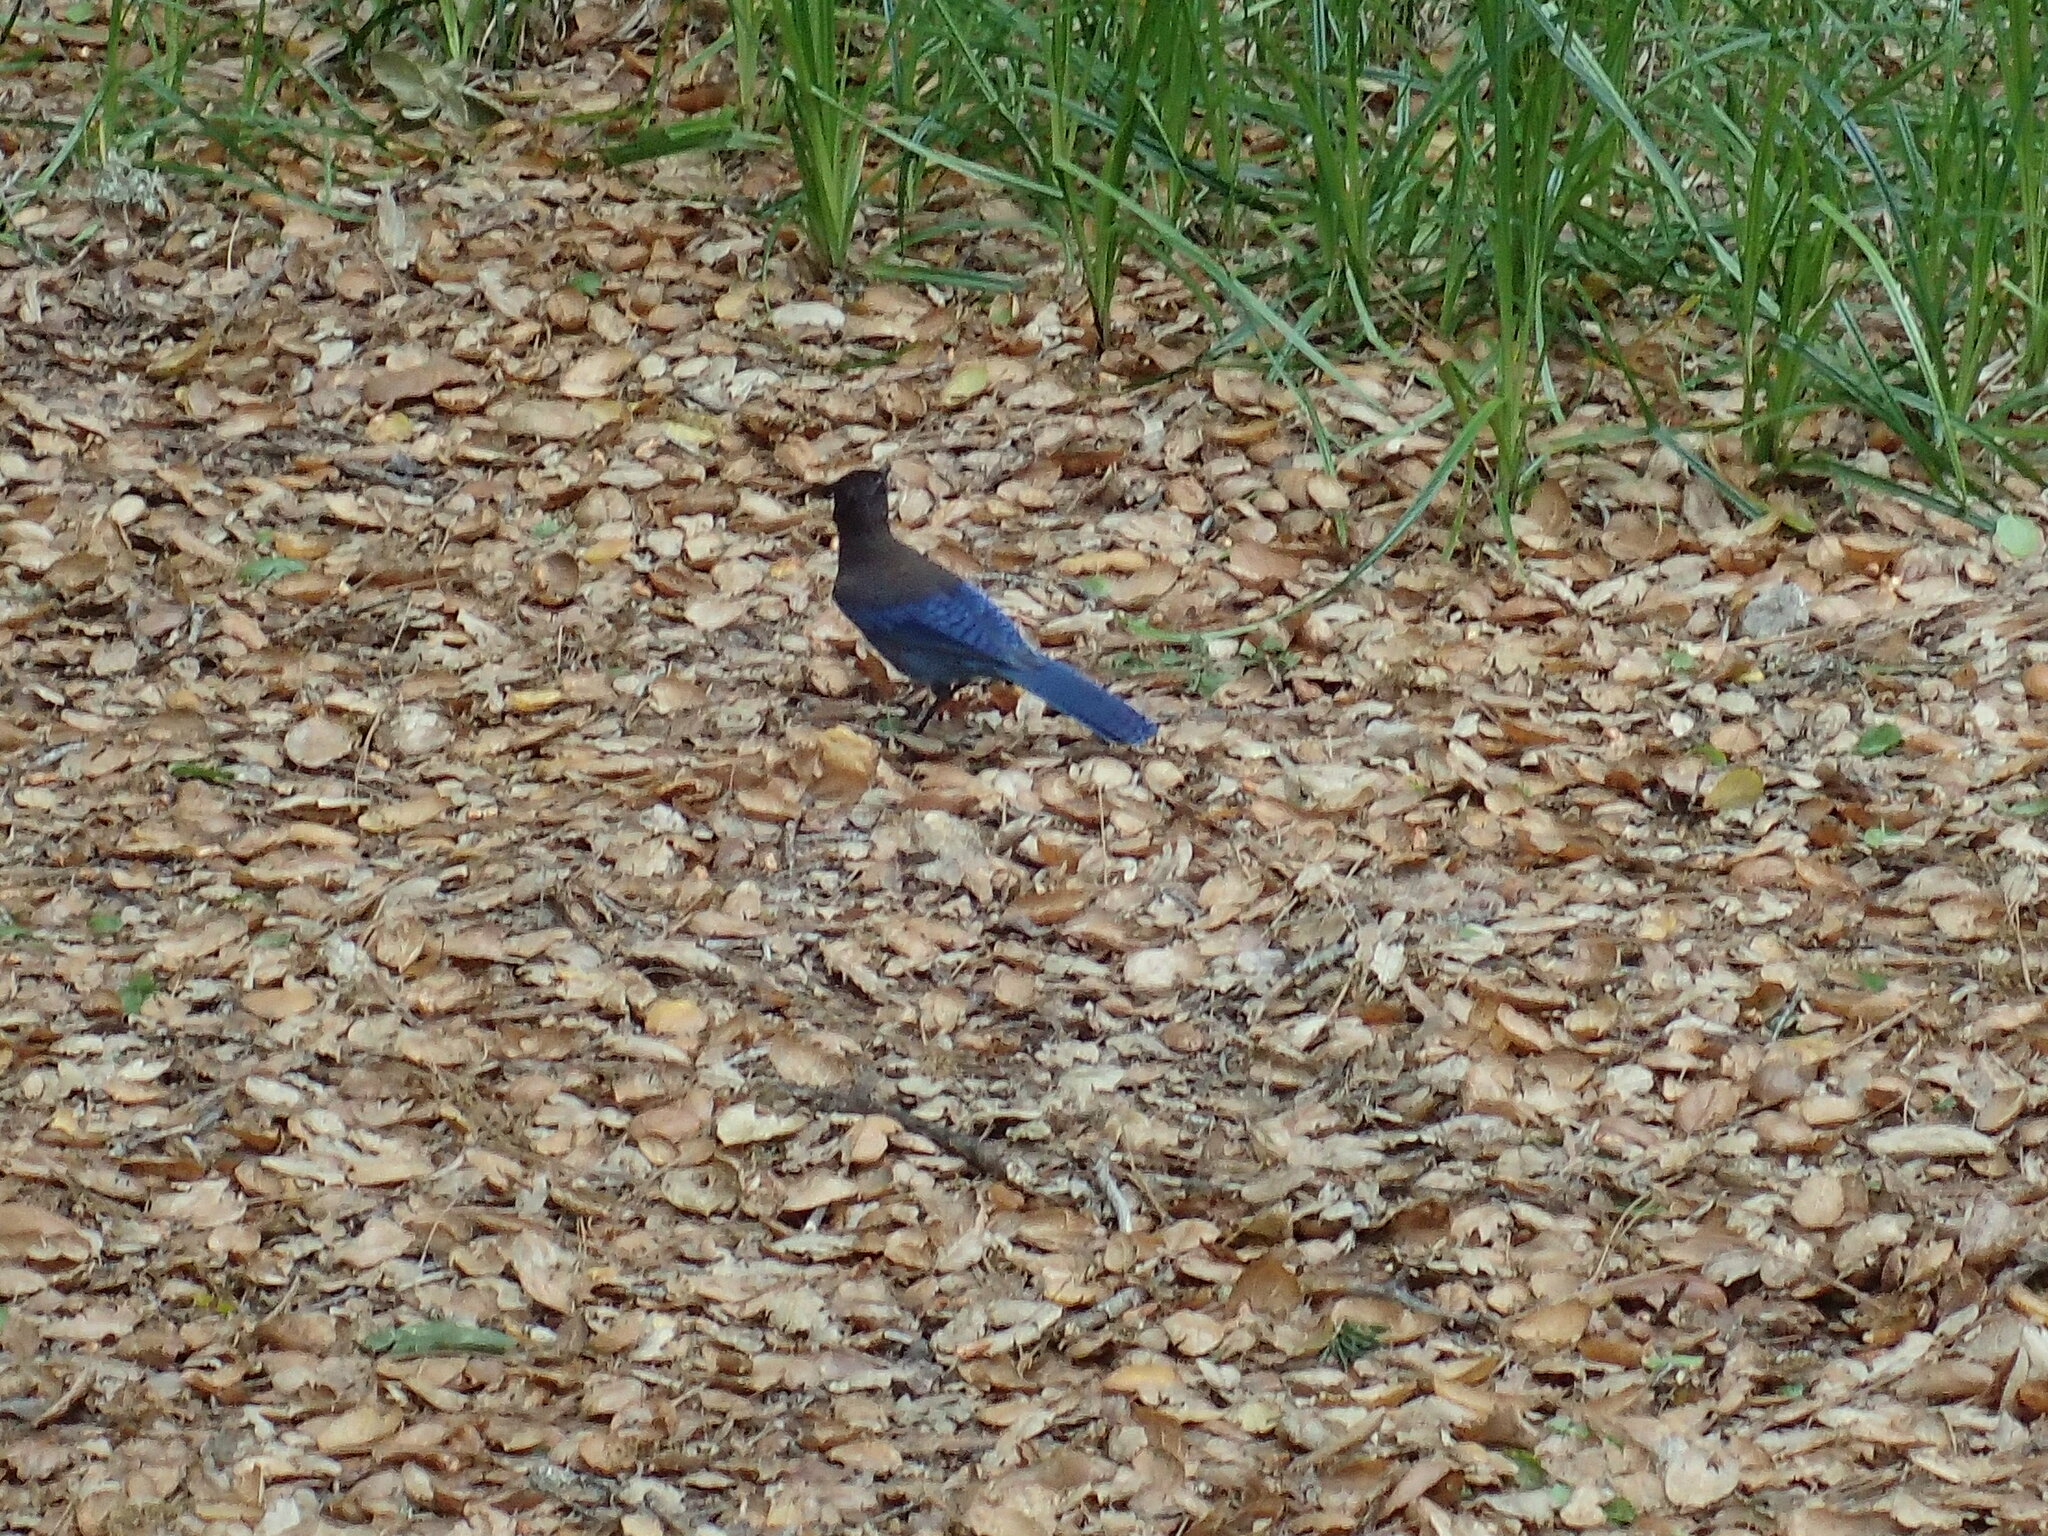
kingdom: Animalia
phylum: Chordata
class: Aves
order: Passeriformes
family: Corvidae
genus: Cyanocitta
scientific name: Cyanocitta stelleri
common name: Steller's jay
